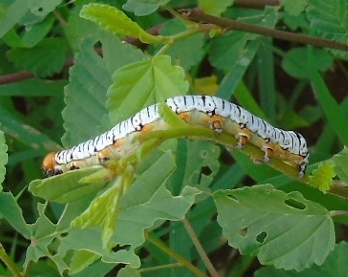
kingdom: Animalia
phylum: Arthropoda
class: Insecta
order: Lepidoptera
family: Erebidae
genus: Diphthera
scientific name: Diphthera festiva
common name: Hieroglyphic moth
